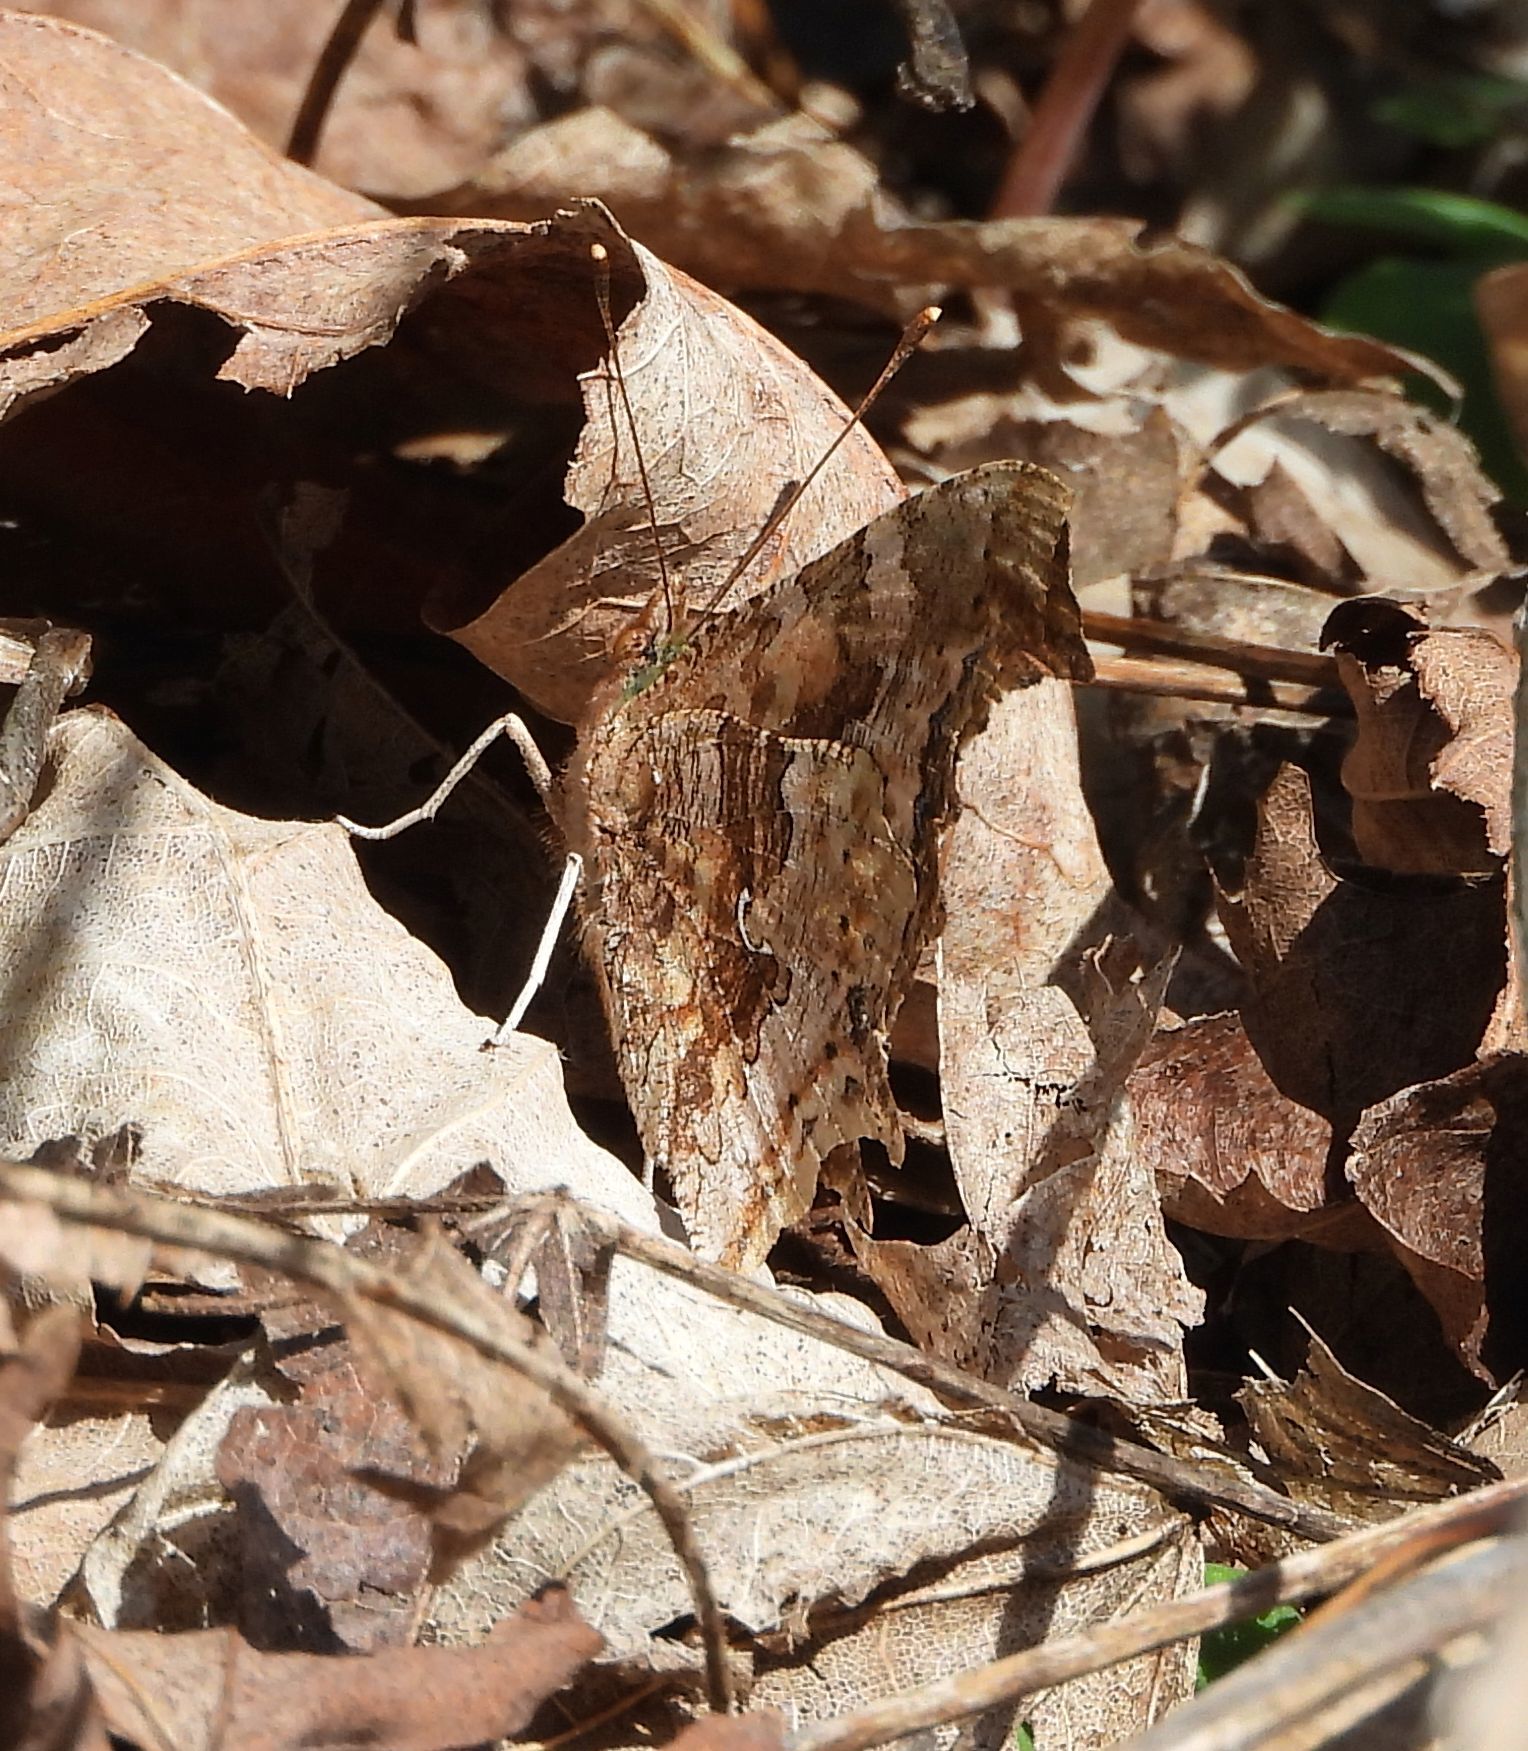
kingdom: Animalia
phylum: Arthropoda
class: Insecta
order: Lepidoptera
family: Nymphalidae
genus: Polygonia
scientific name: Polygonia comma
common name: Eastern comma
